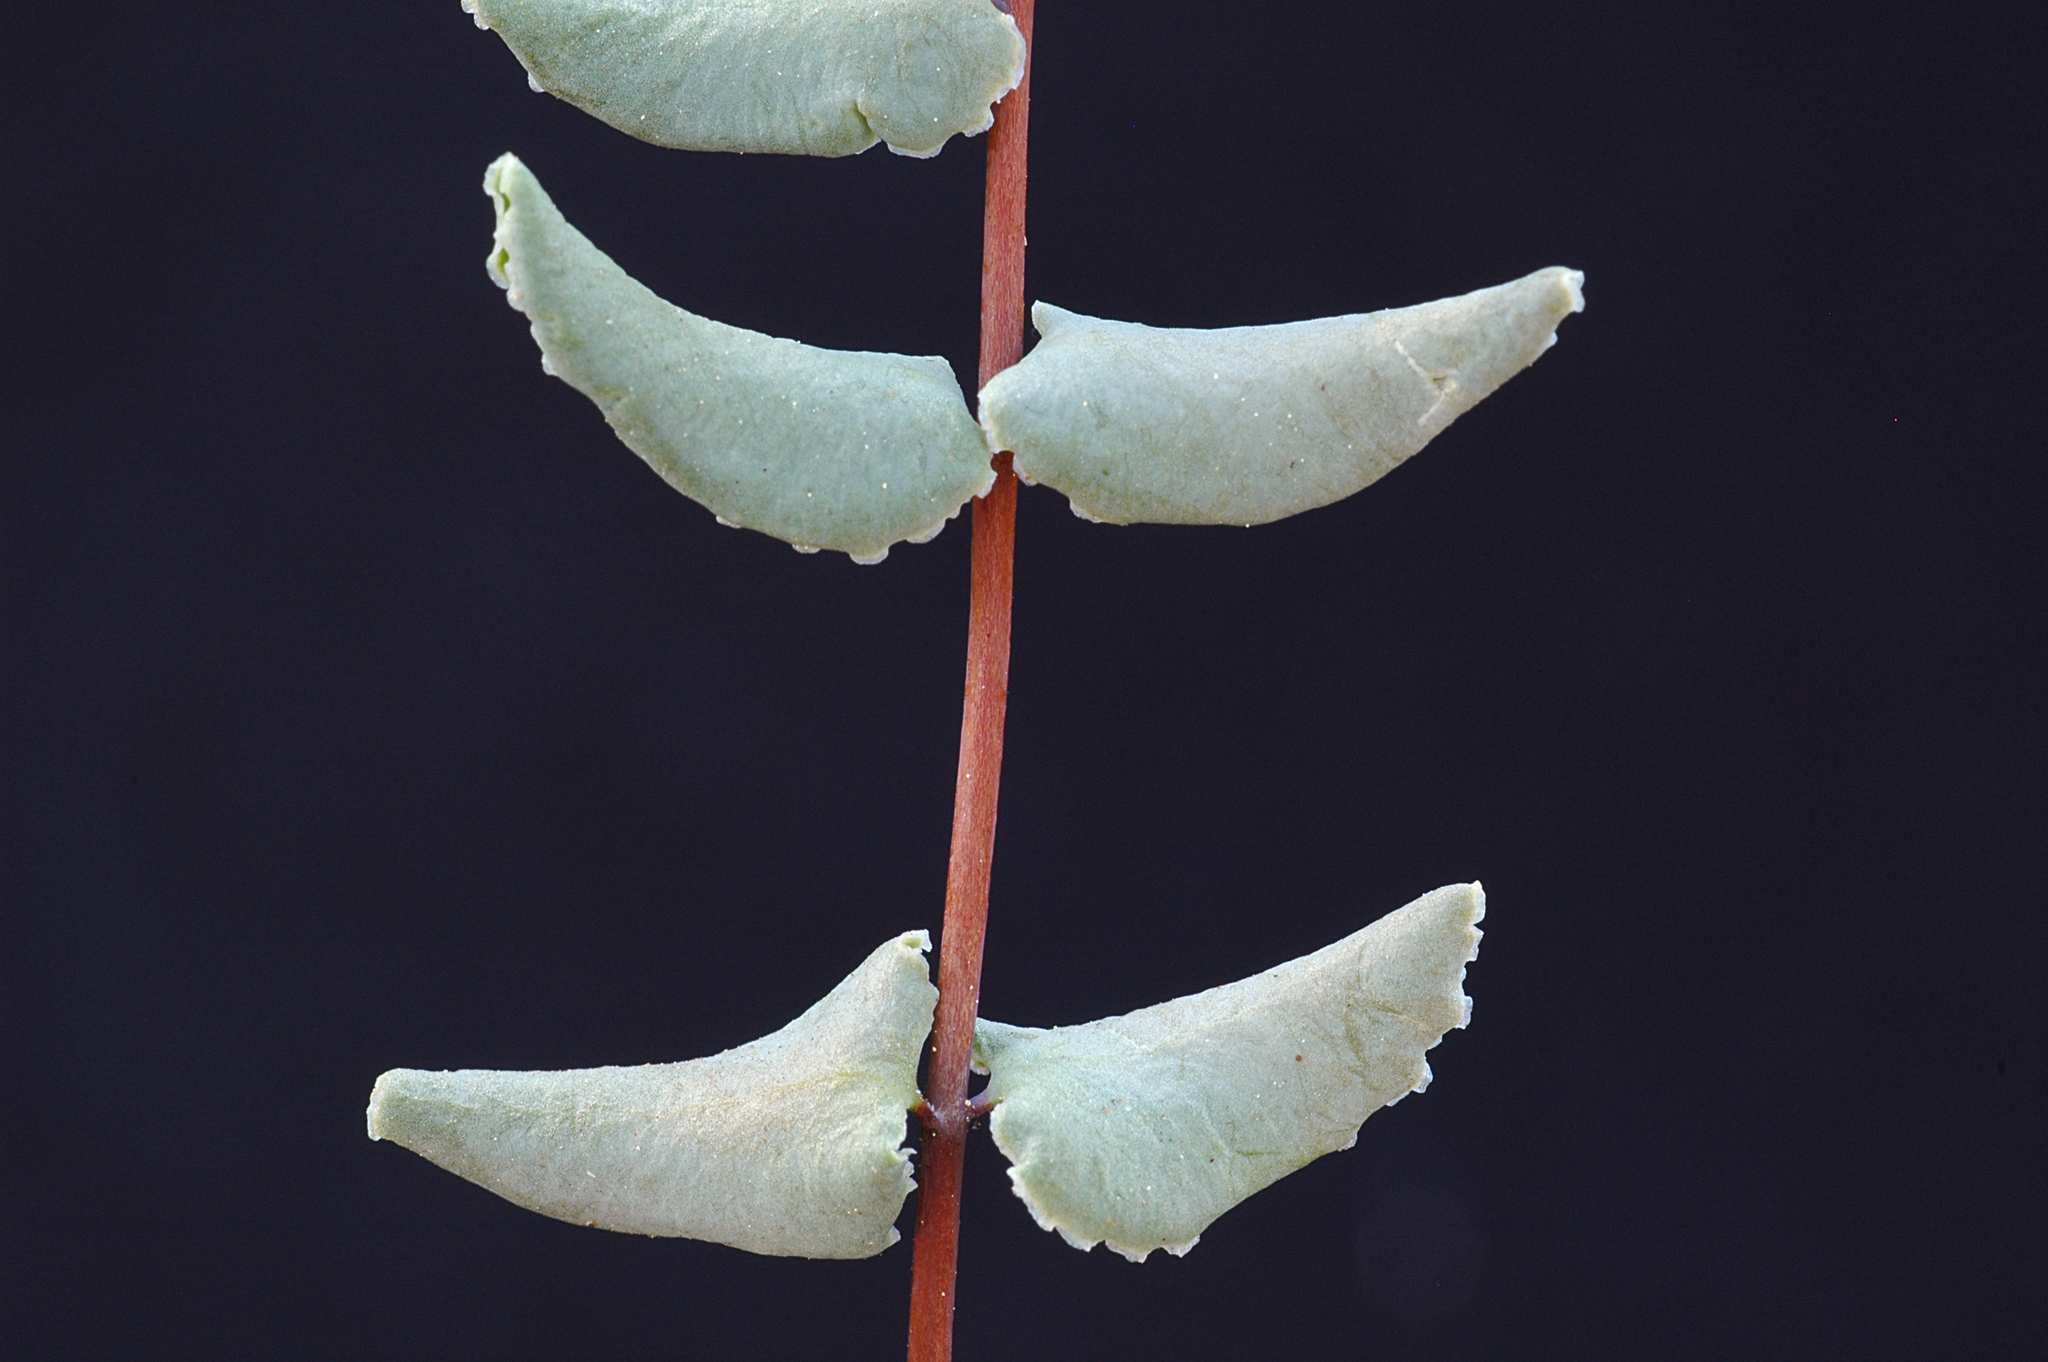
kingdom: Plantae
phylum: Tracheophyta
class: Polypodiopsida
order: Polypodiales
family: Pteridaceae
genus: Pellaea
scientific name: Pellaea bridgesii
